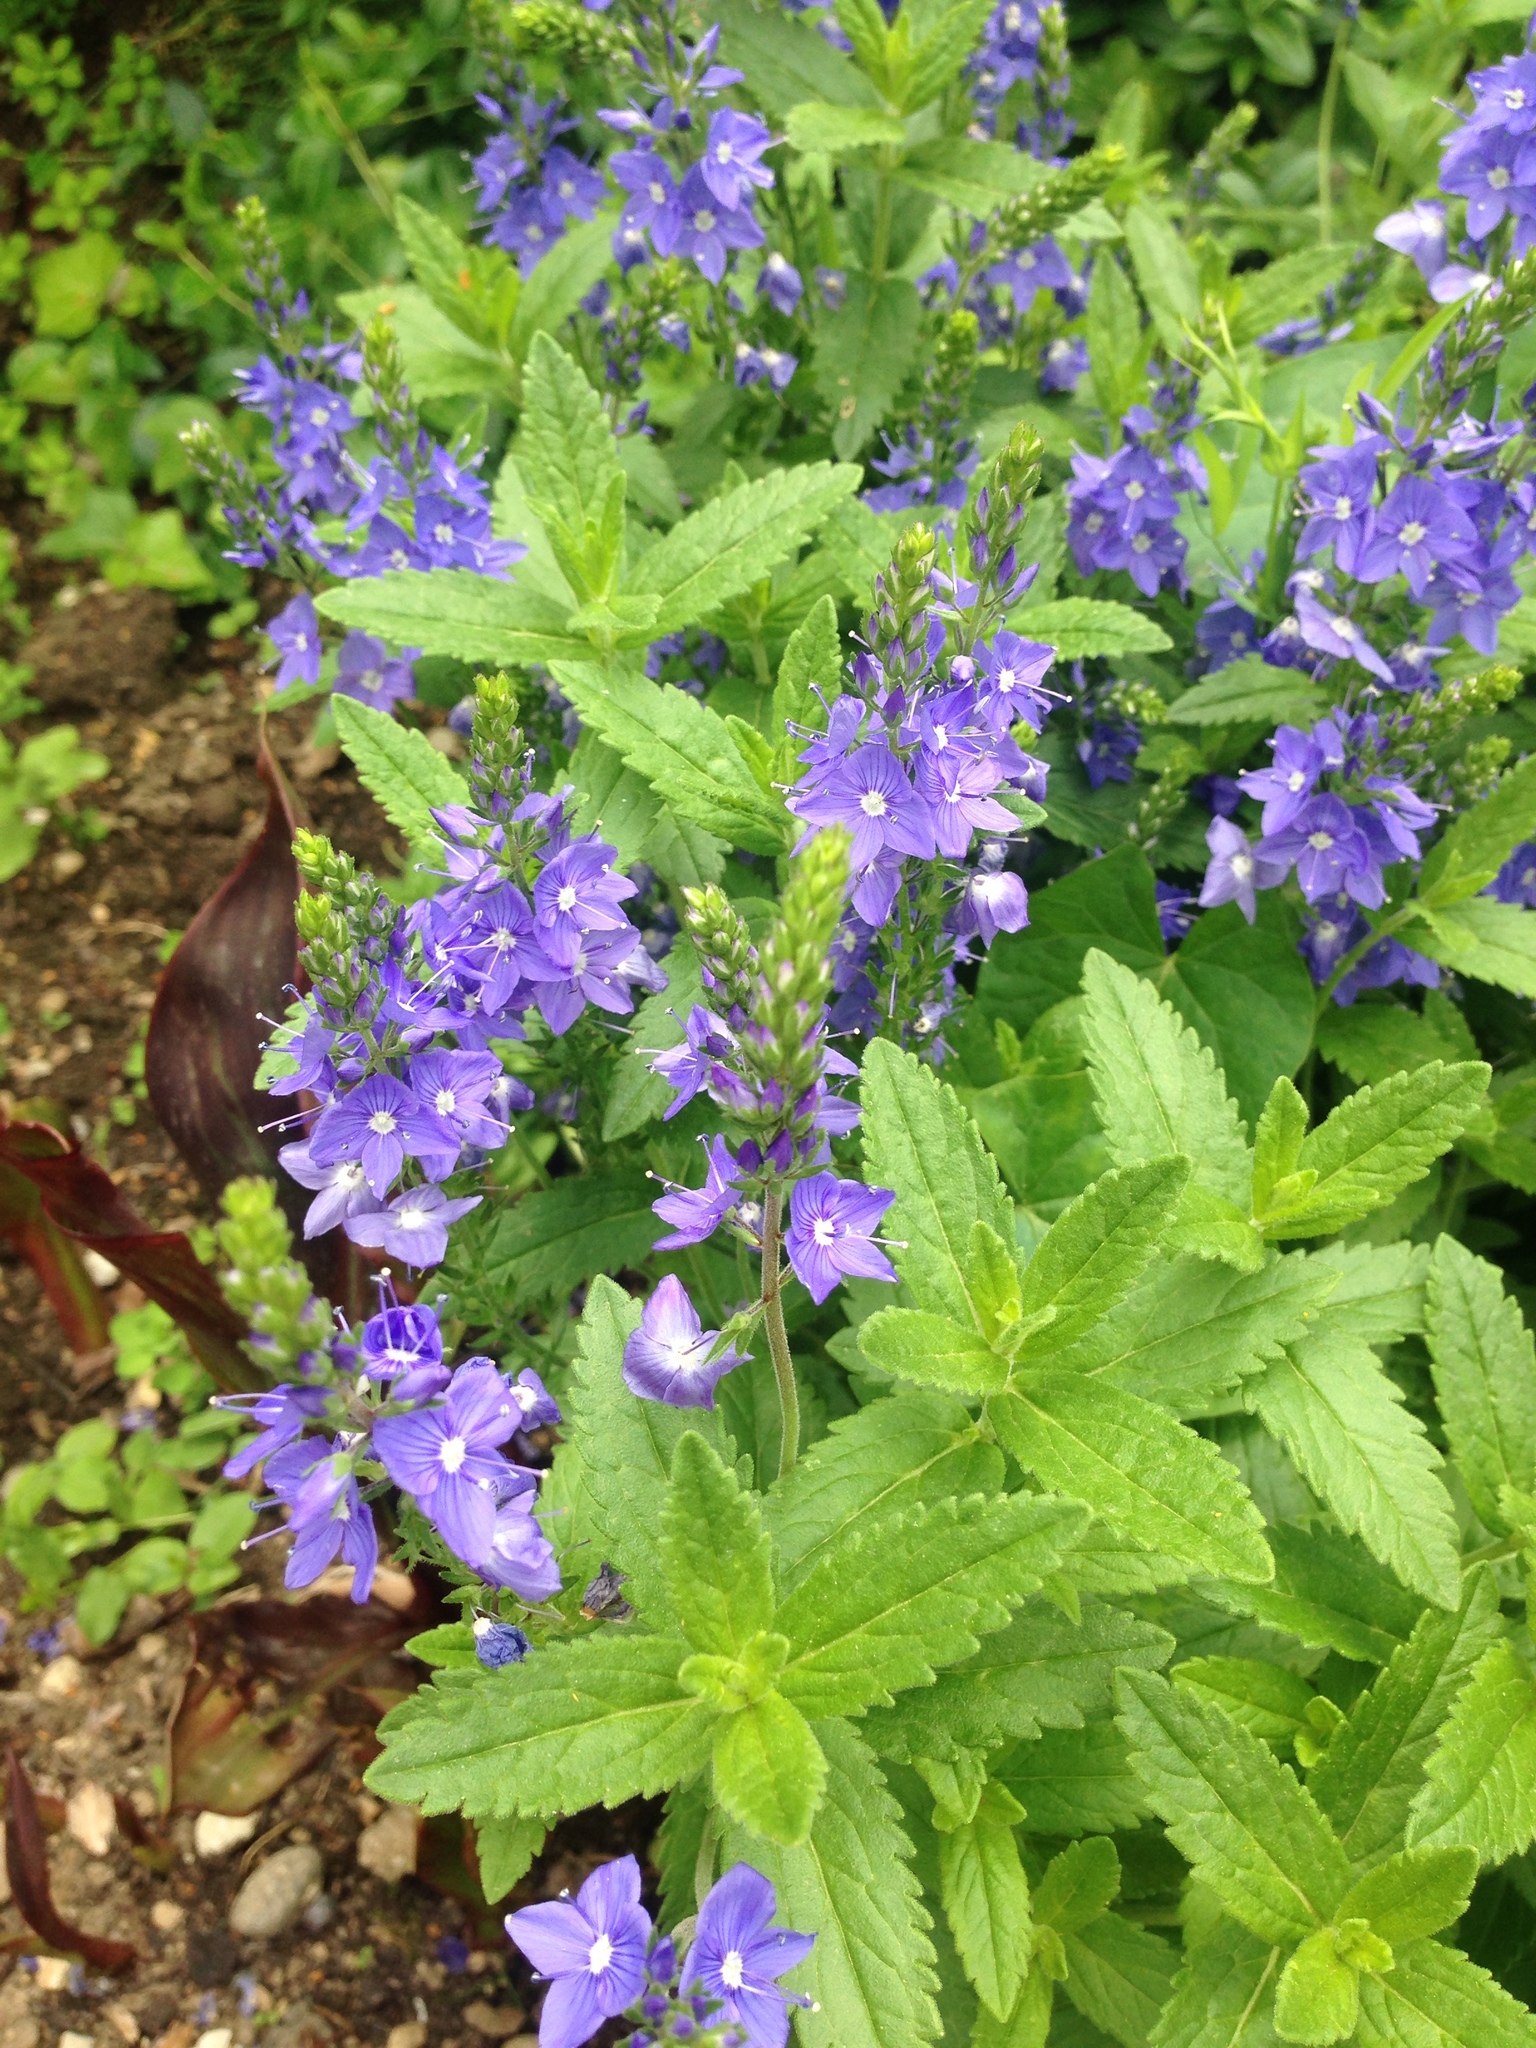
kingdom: Plantae
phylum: Tracheophyta
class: Magnoliopsida
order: Lamiales
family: Plantaginaceae
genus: Veronica
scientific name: Veronica teucrium
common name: Large speedwell
